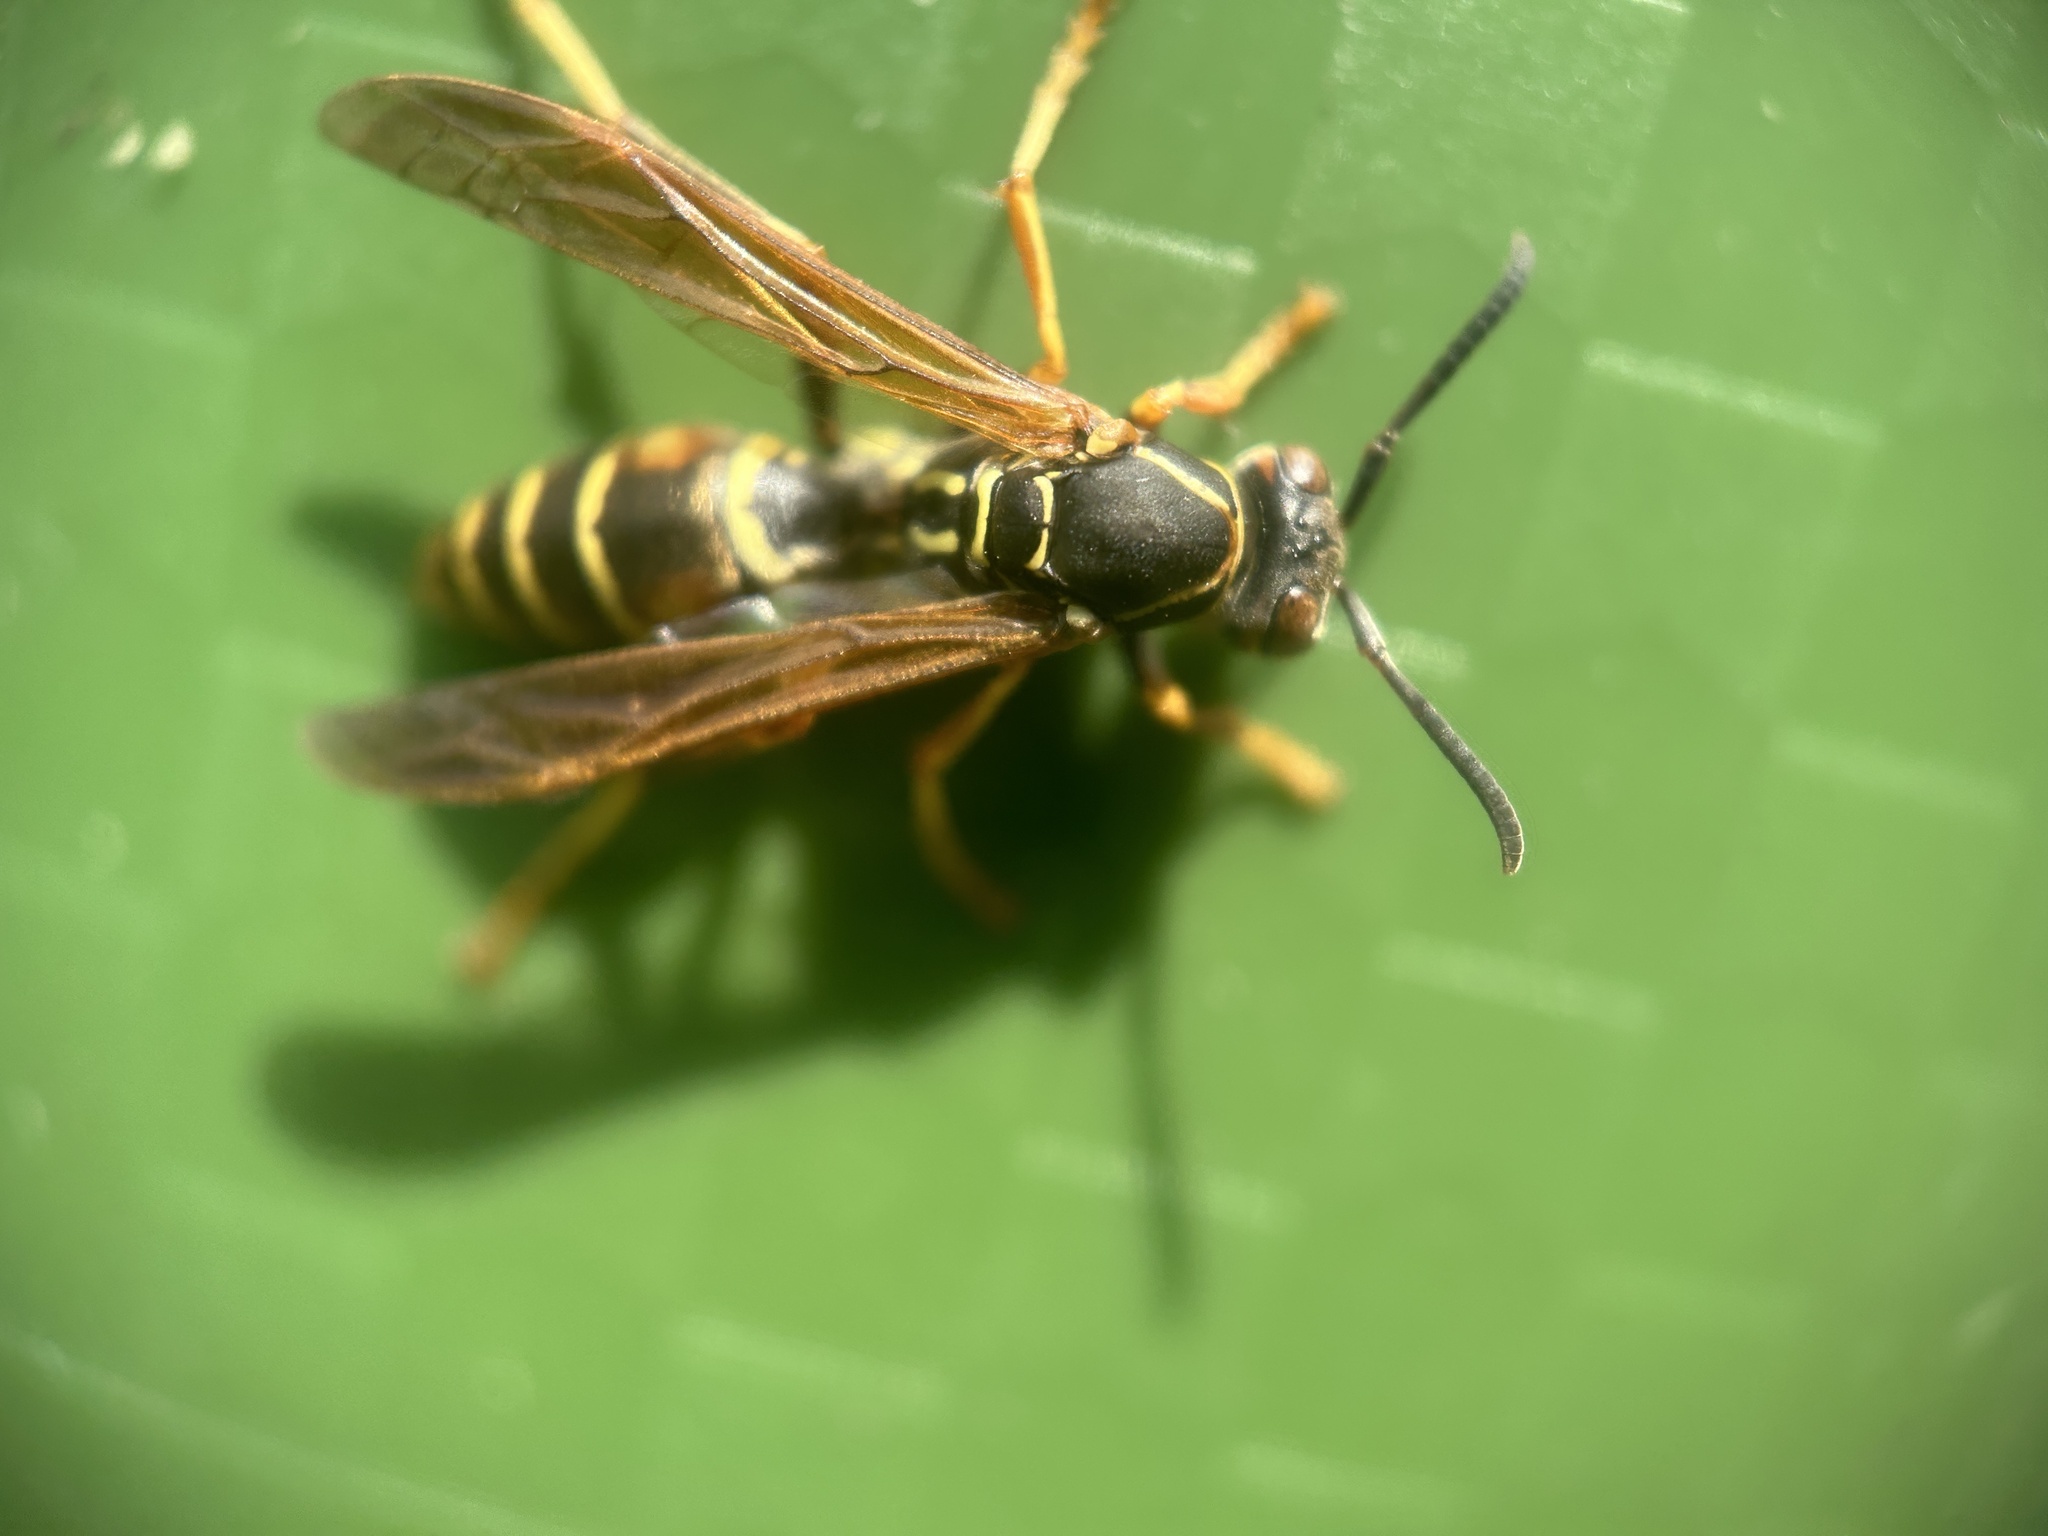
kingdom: Animalia
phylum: Arthropoda
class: Insecta
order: Hymenoptera
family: Eumenidae
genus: Polistes
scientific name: Polistes fuscatus
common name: Dark paper wasp
